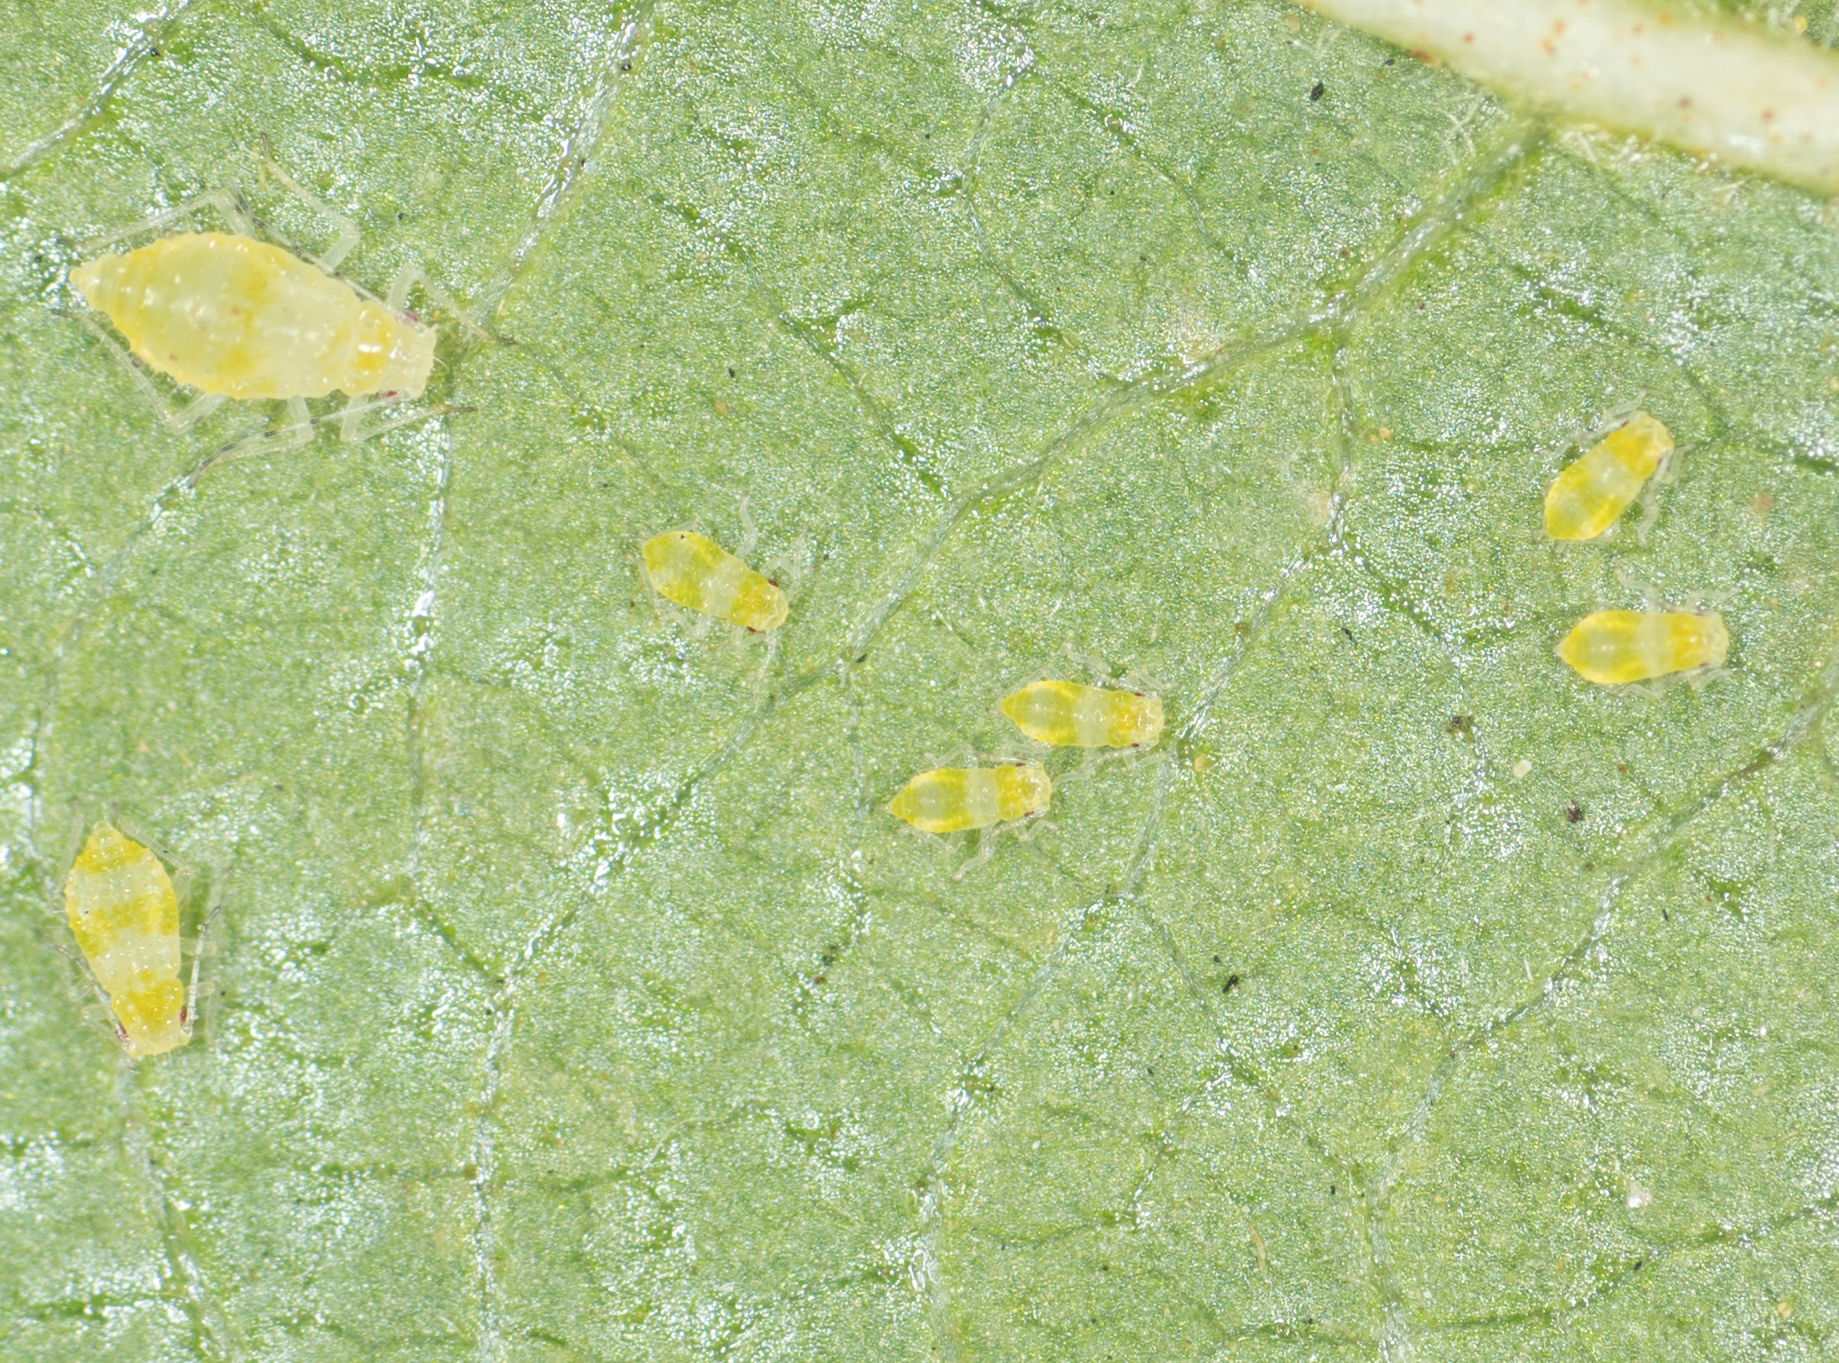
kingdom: Animalia
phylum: Arthropoda
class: Insecta
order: Hemiptera
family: Aphididae
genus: Pterocallis
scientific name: Pterocallis alni
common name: Aphid
